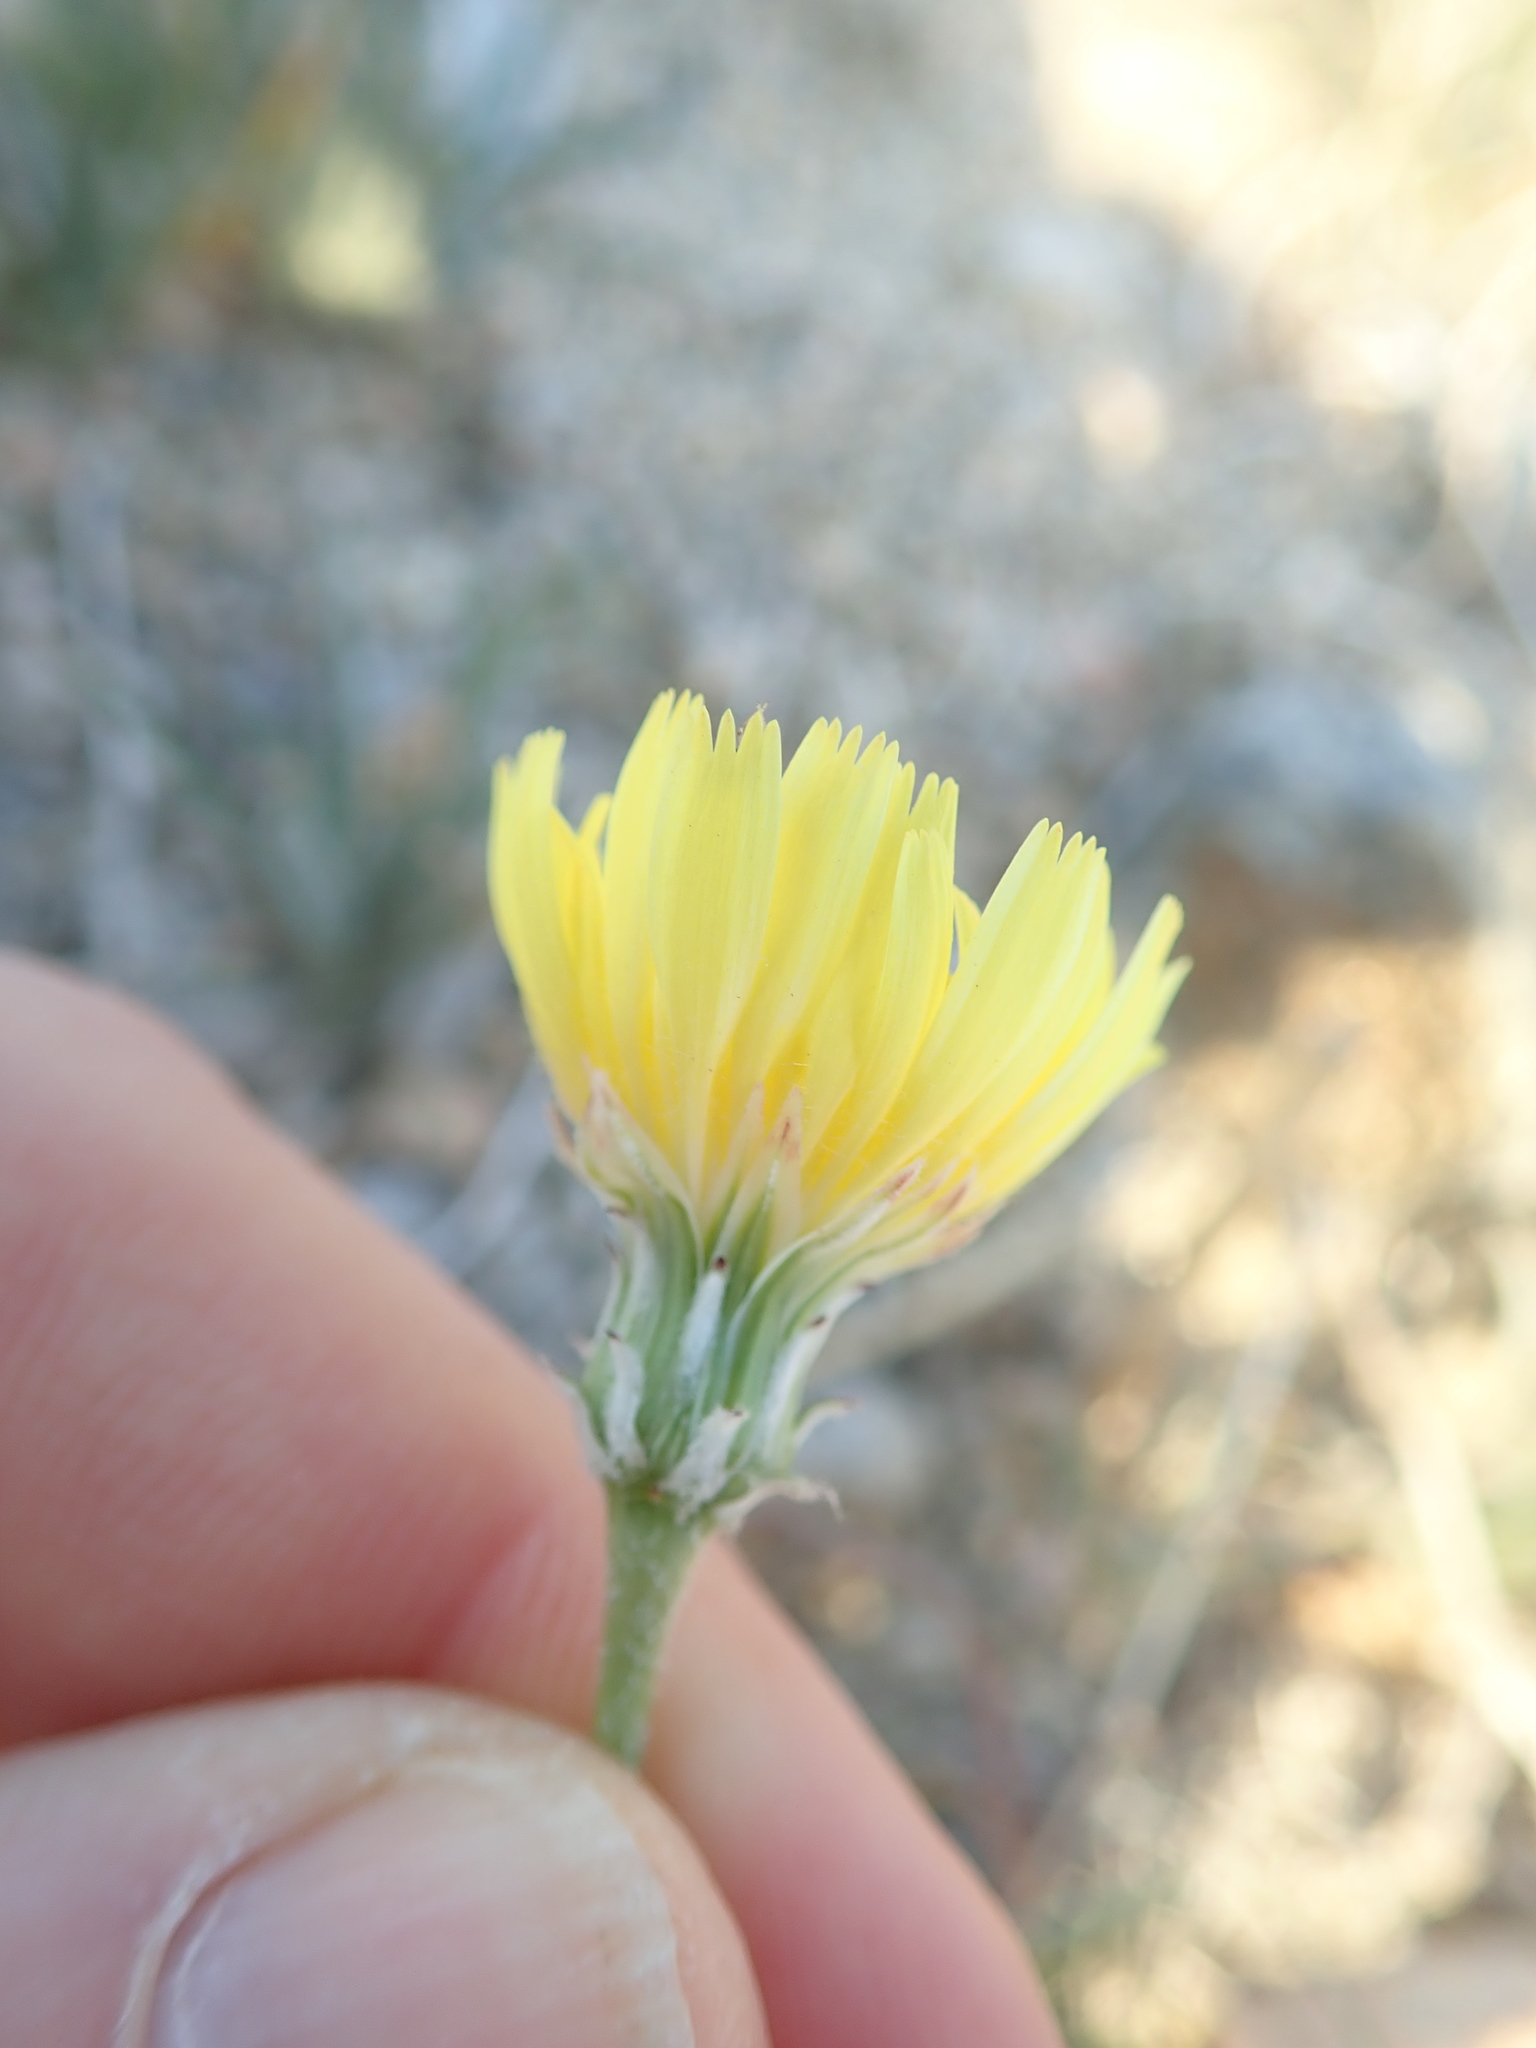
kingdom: Plantae
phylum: Tracheophyta
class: Magnoliopsida
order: Asterales
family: Asteraceae
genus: Malacothrix
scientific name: Malacothrix glabrata
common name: Smooth desert-dandelion
